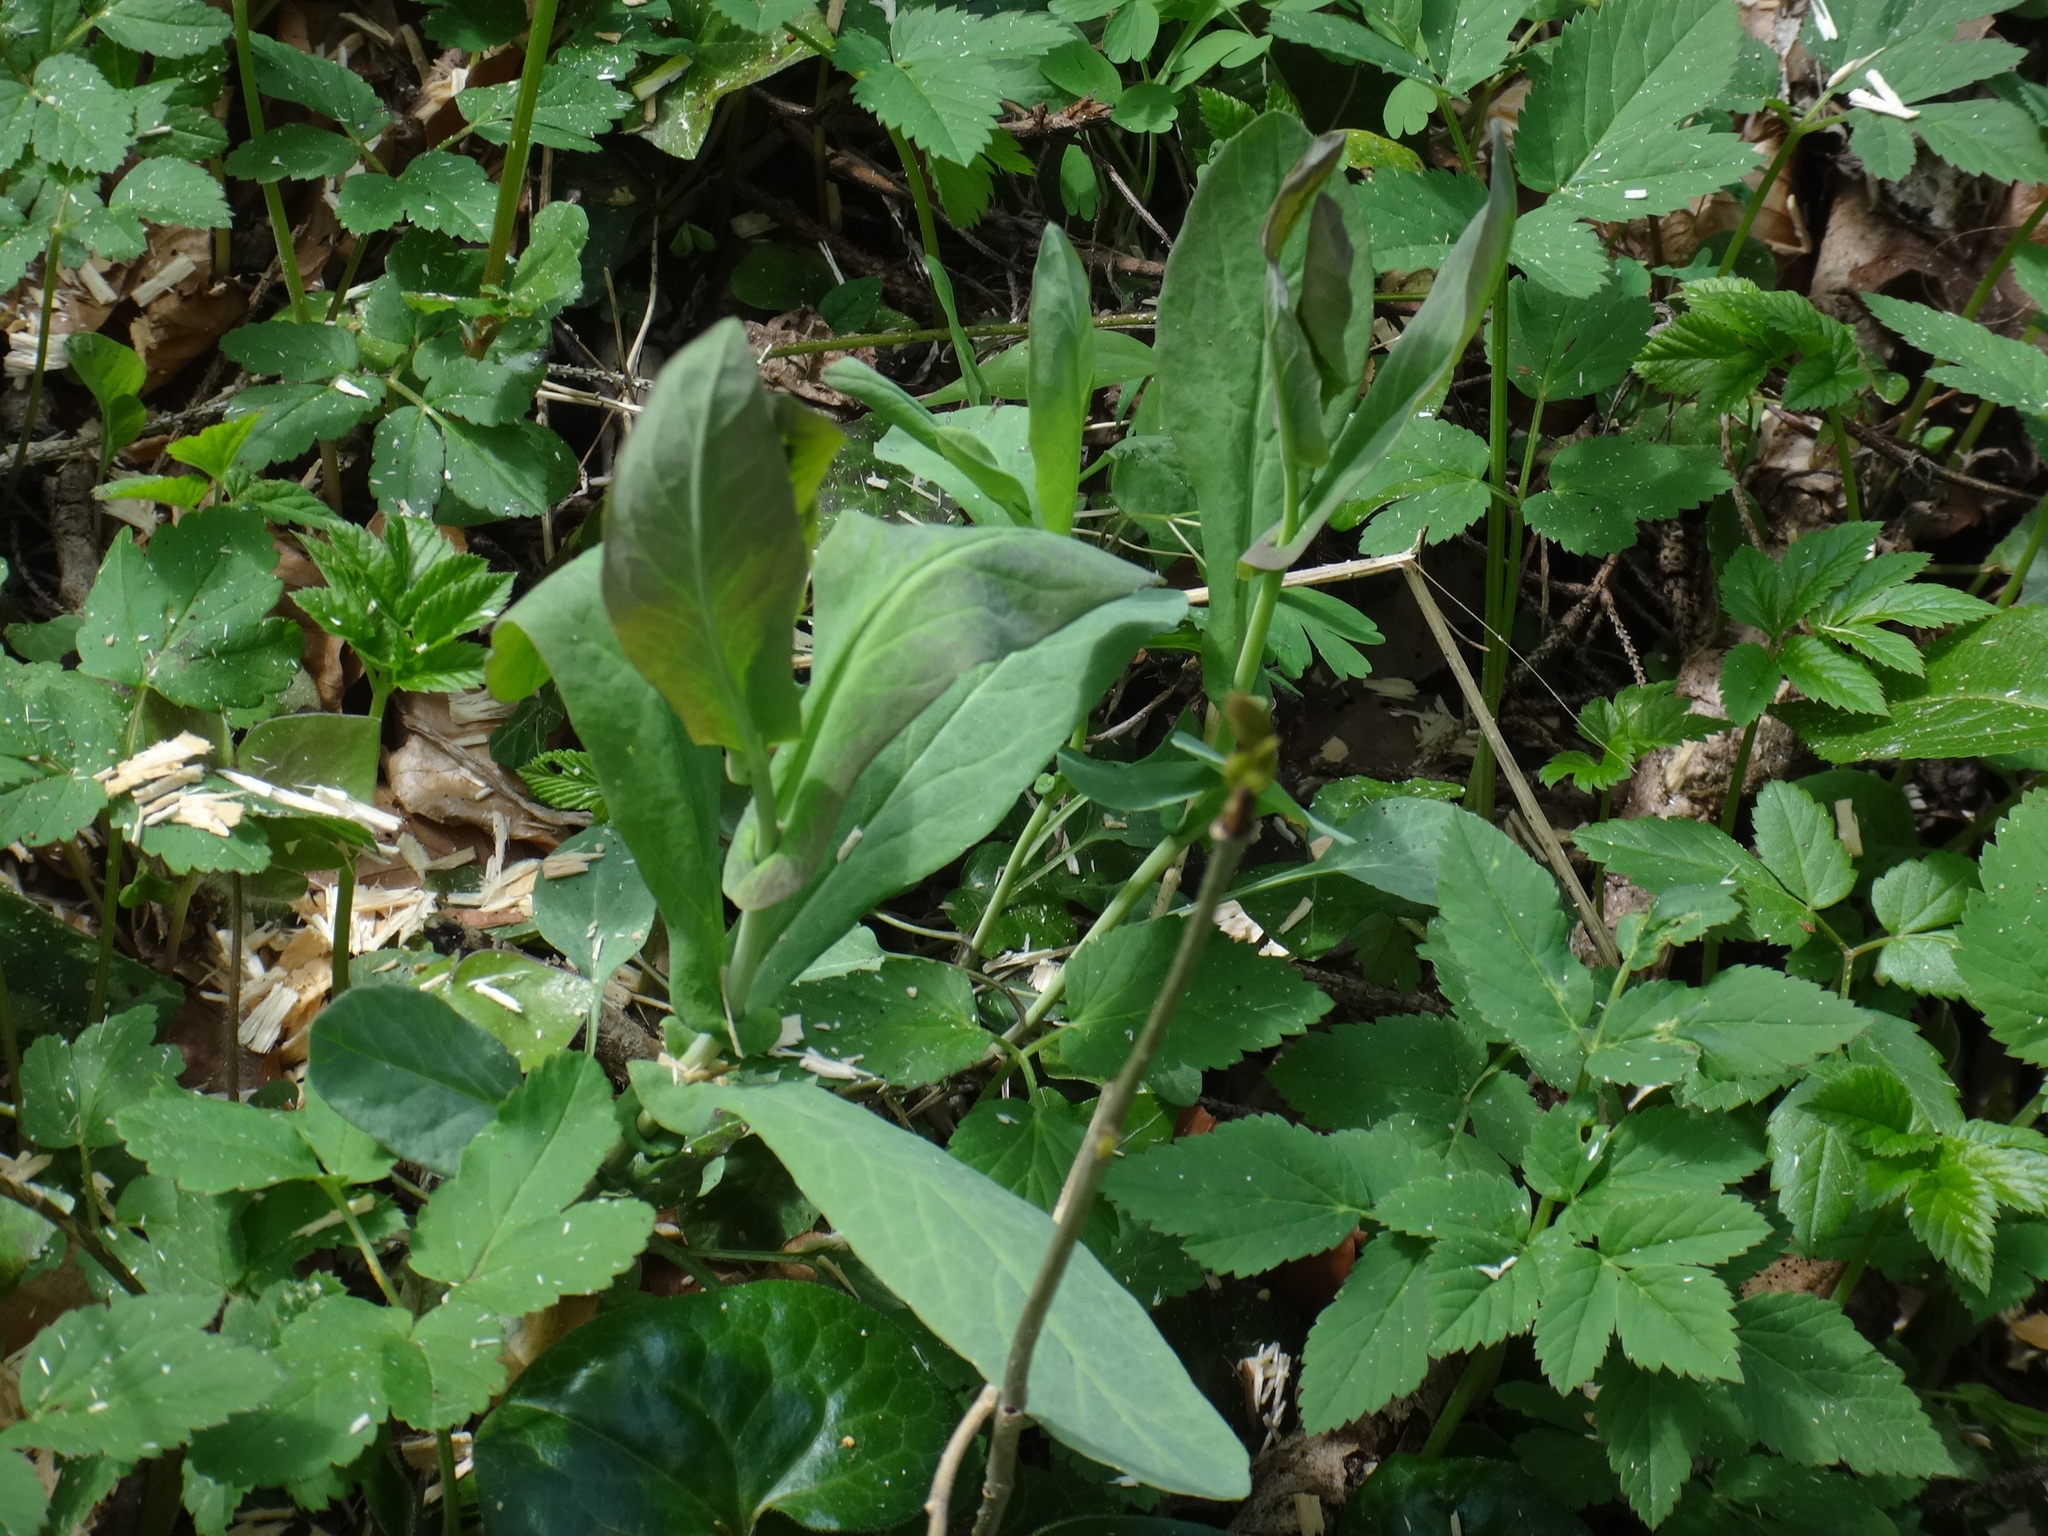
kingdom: Plantae
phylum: Tracheophyta
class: Magnoliopsida
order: Brassicales
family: Brassicaceae
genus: Turritis
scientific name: Turritis glabra
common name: Tower rockcress
